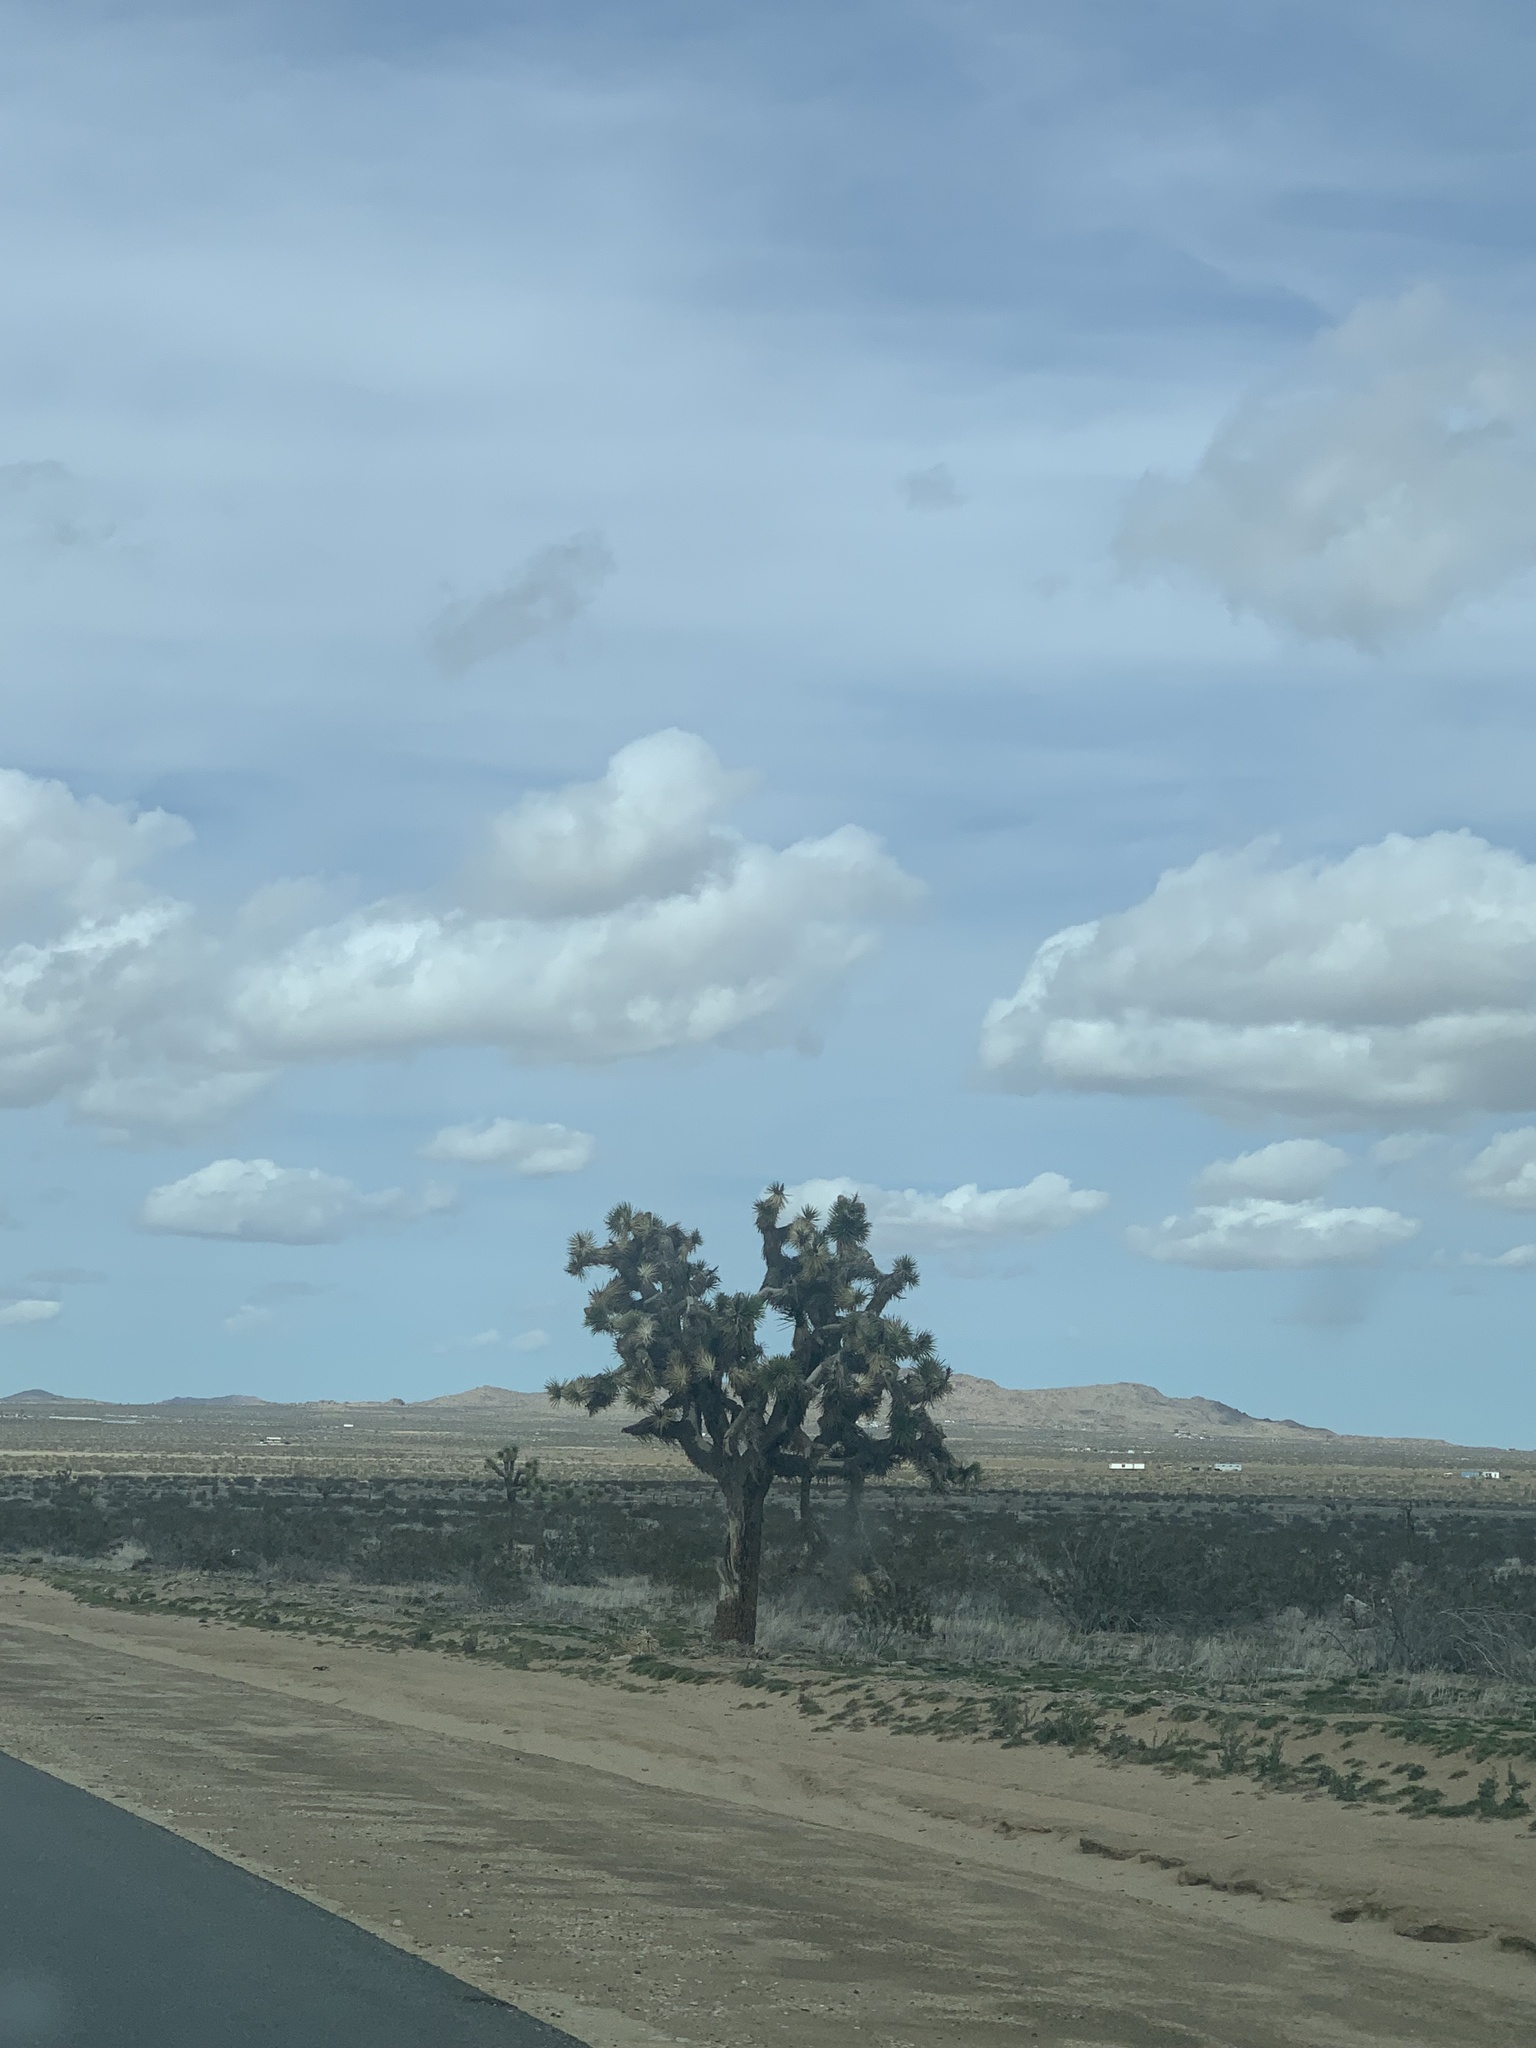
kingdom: Plantae
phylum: Tracheophyta
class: Liliopsida
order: Asparagales
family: Asparagaceae
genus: Yucca
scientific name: Yucca brevifolia
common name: Joshua tree
